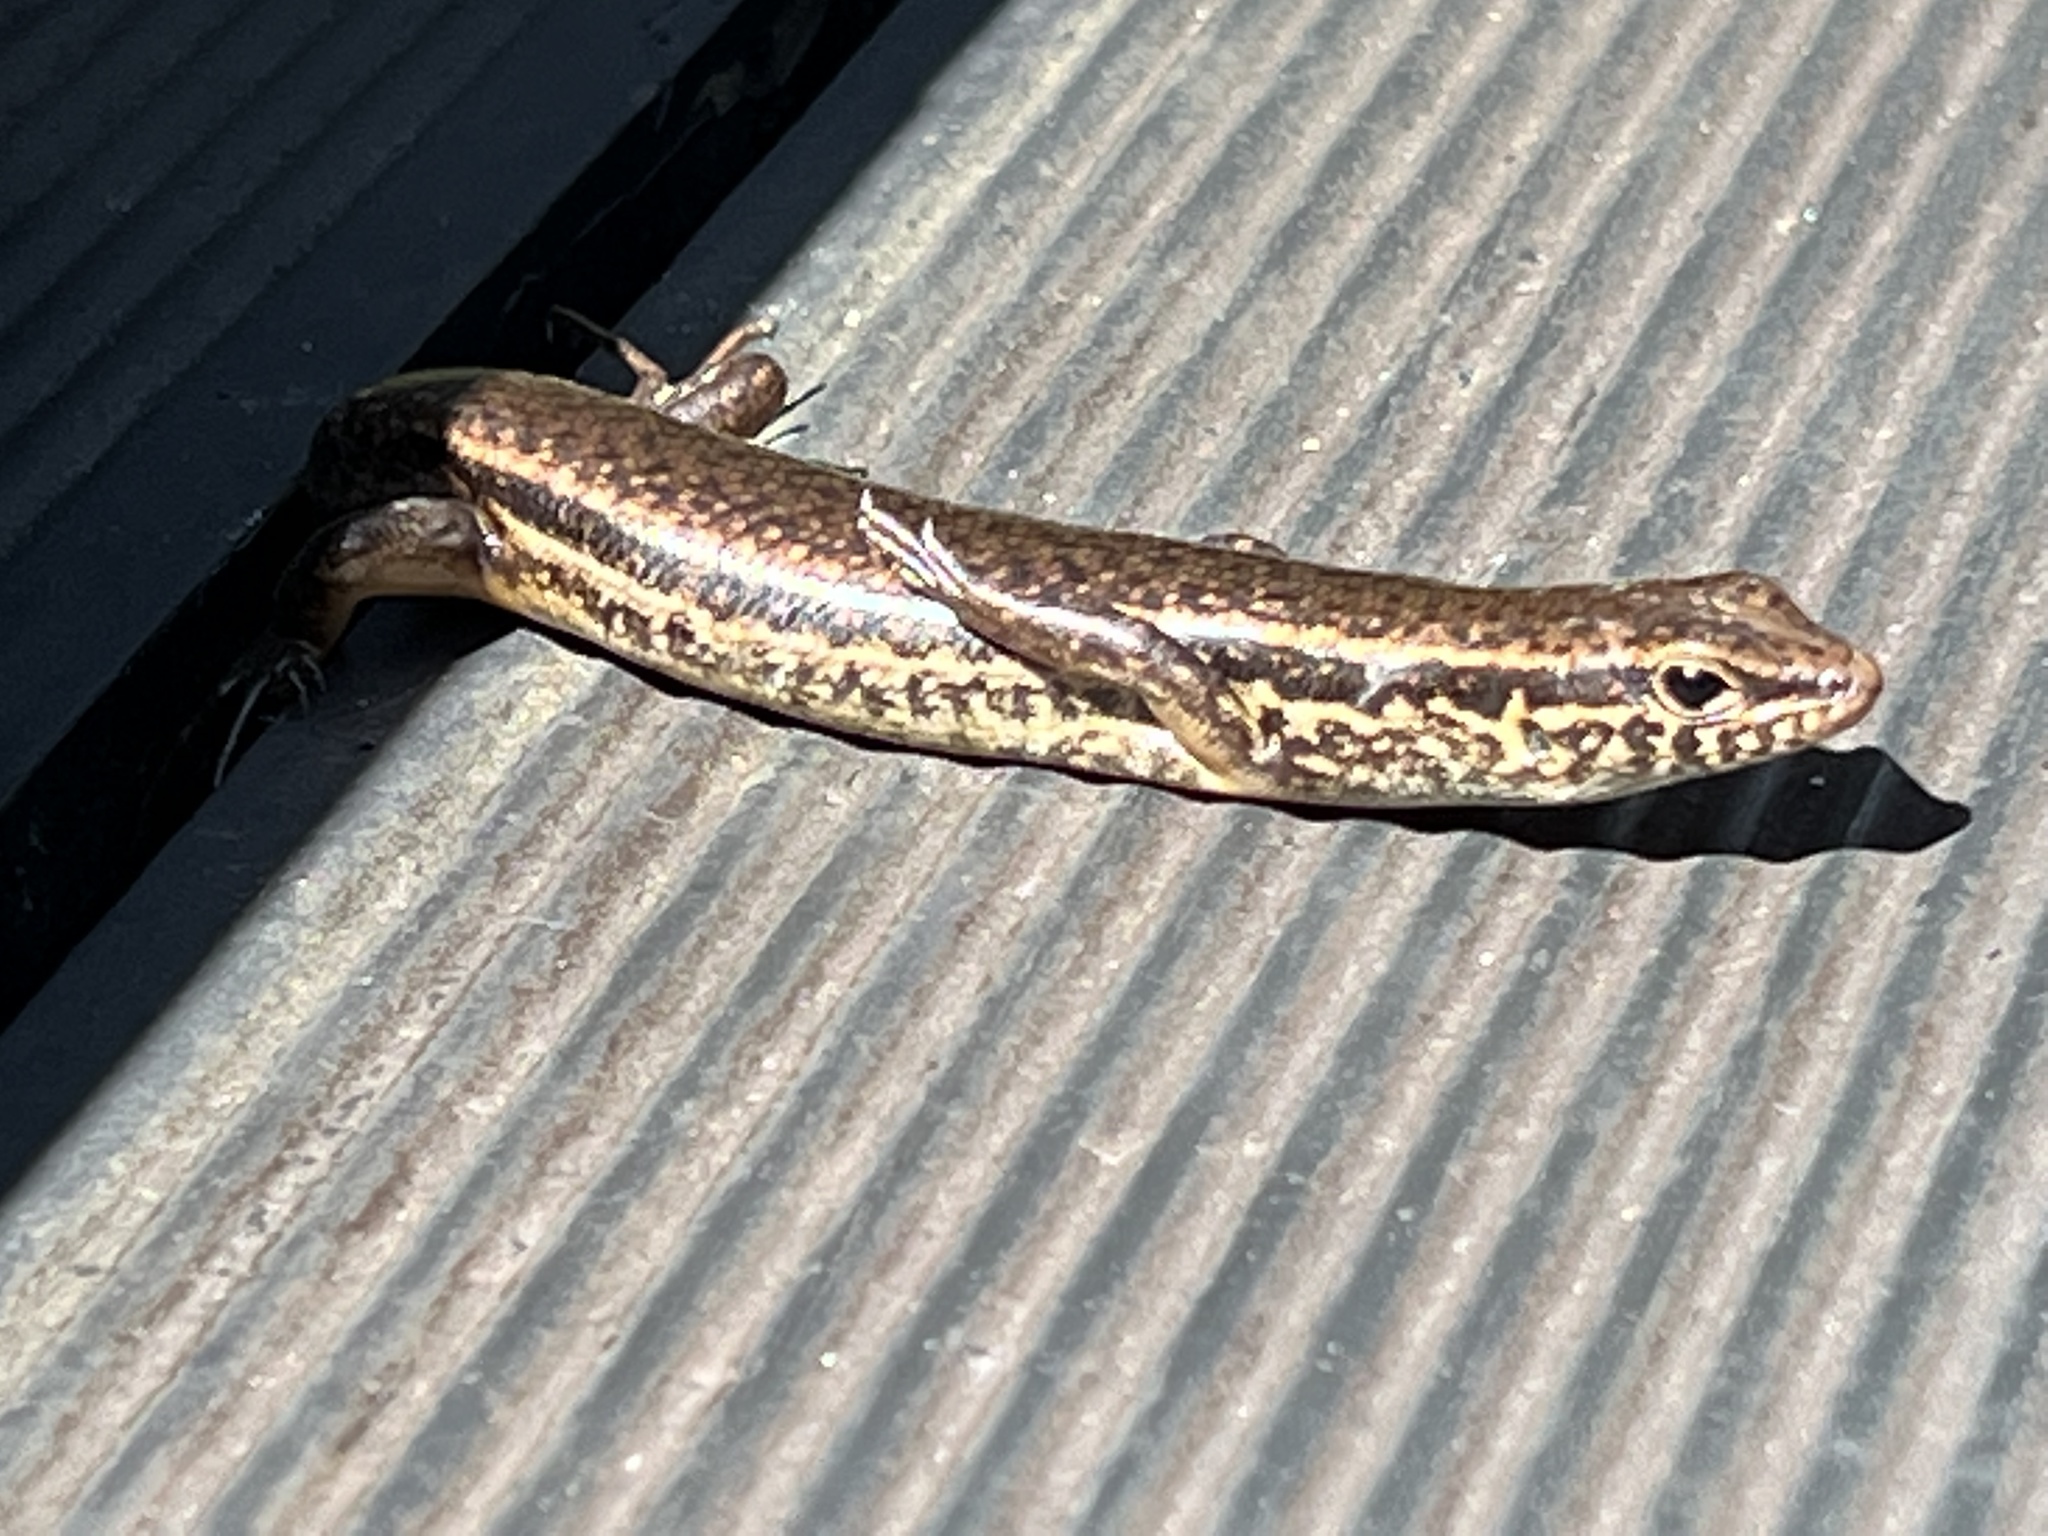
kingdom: Animalia
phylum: Chordata
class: Squamata
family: Scincidae
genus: Sphenomorphus
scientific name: Sphenomorphus indicus
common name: Himalayan forest skink
